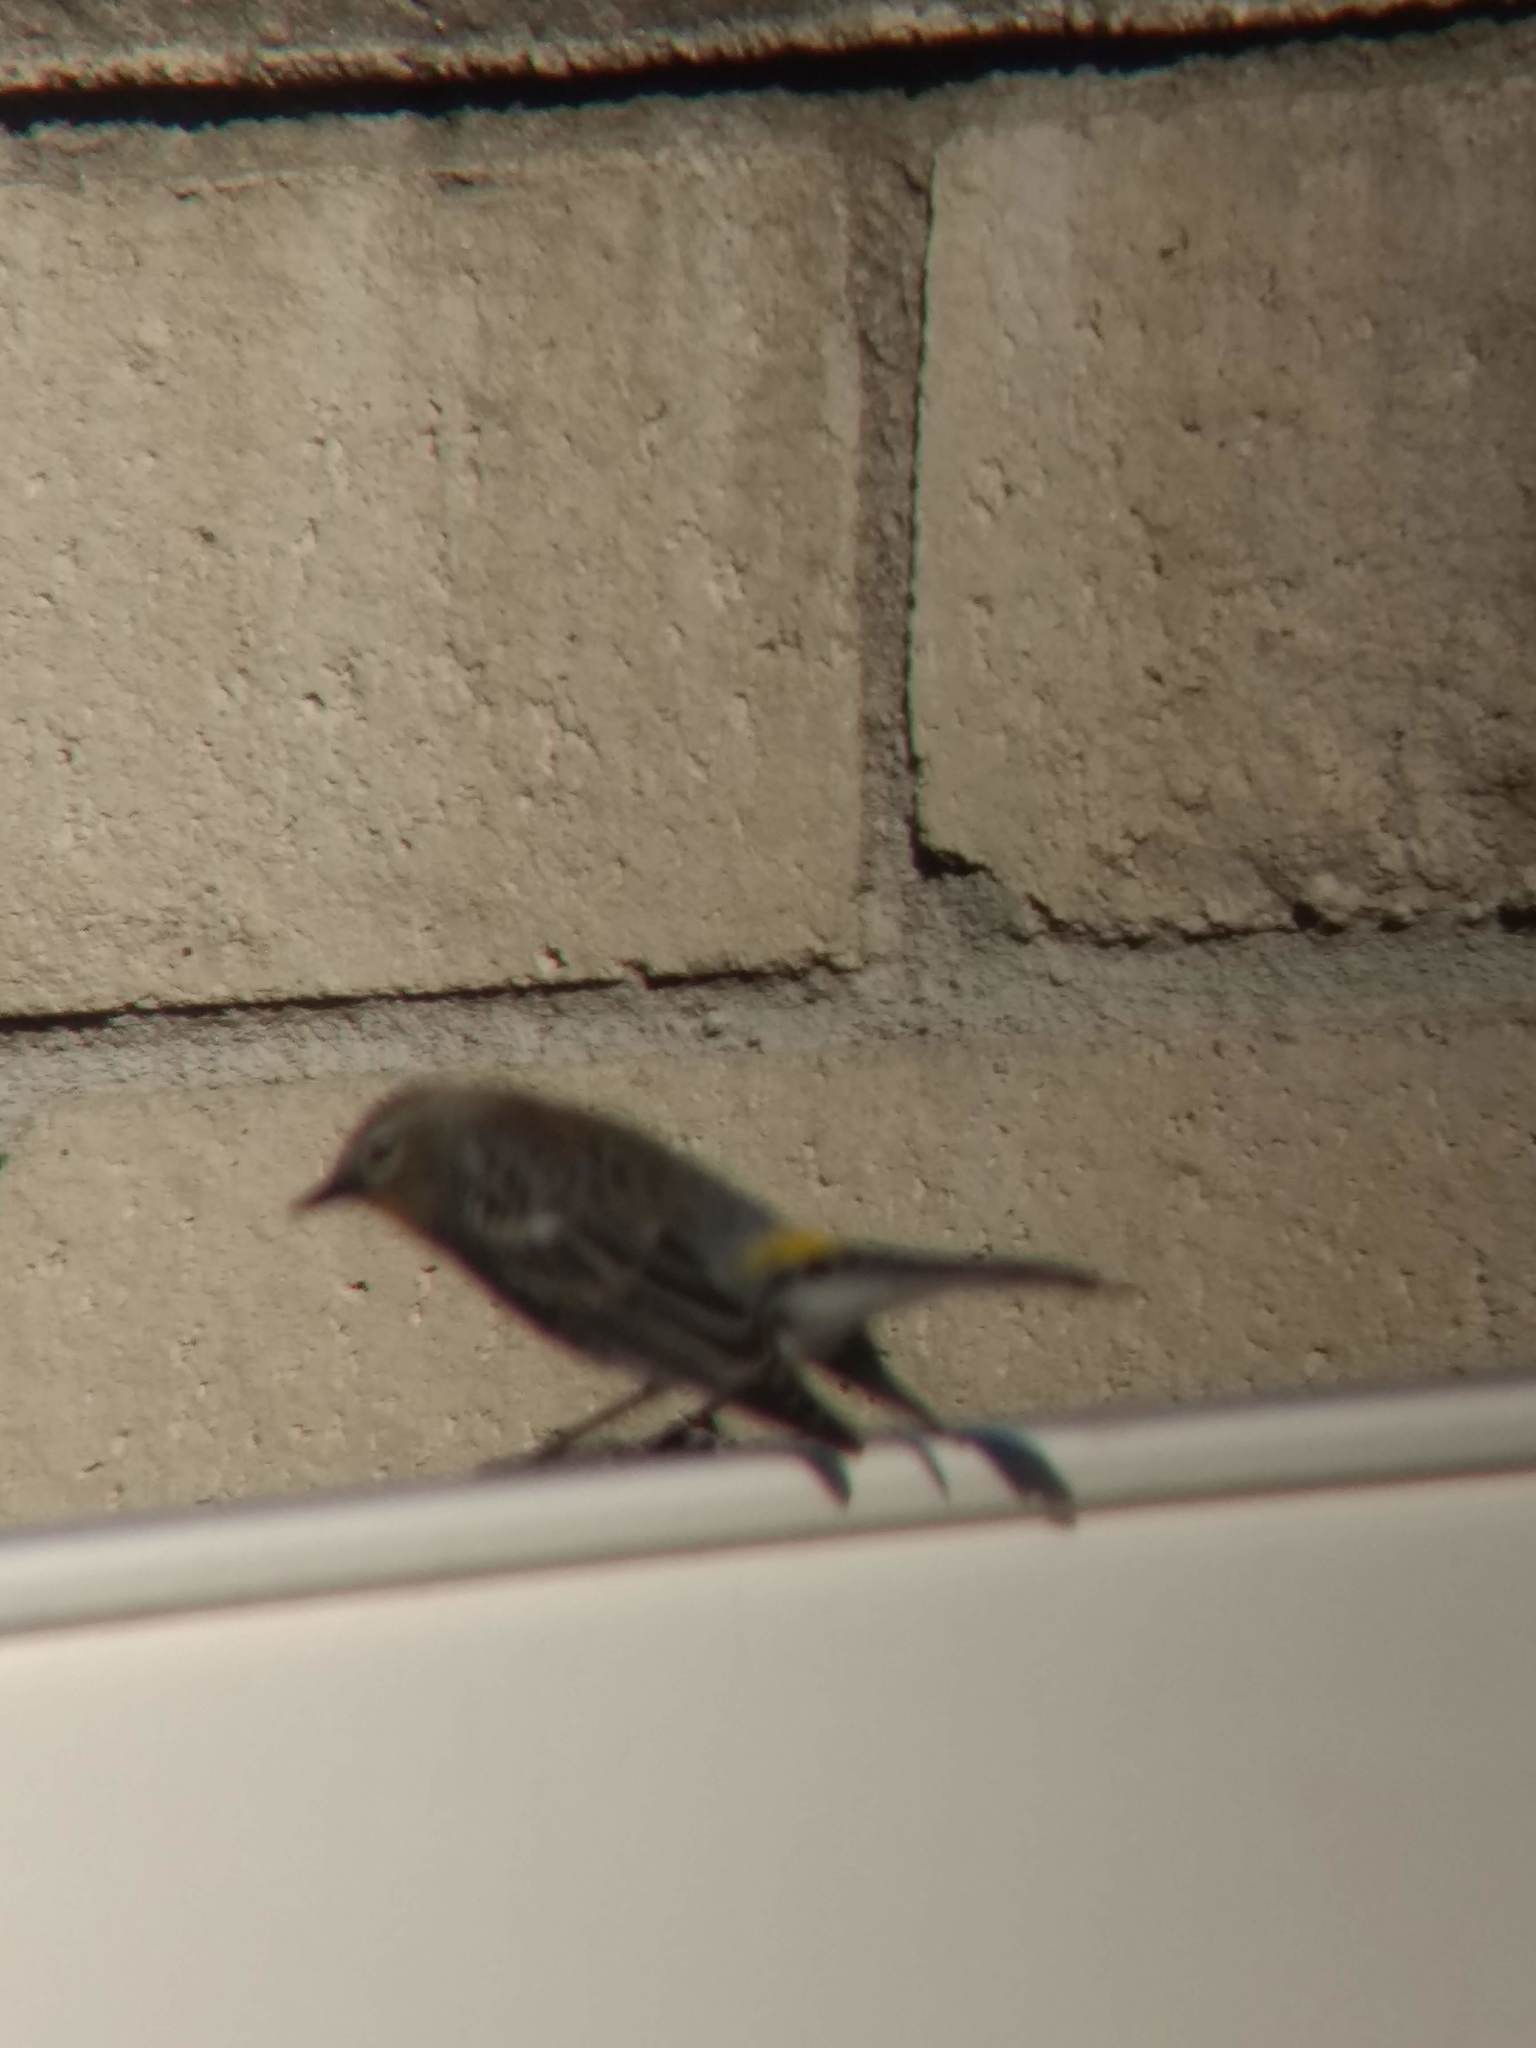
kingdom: Animalia
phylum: Chordata
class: Aves
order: Passeriformes
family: Parulidae
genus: Setophaga
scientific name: Setophaga coronata
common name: Myrtle warbler
